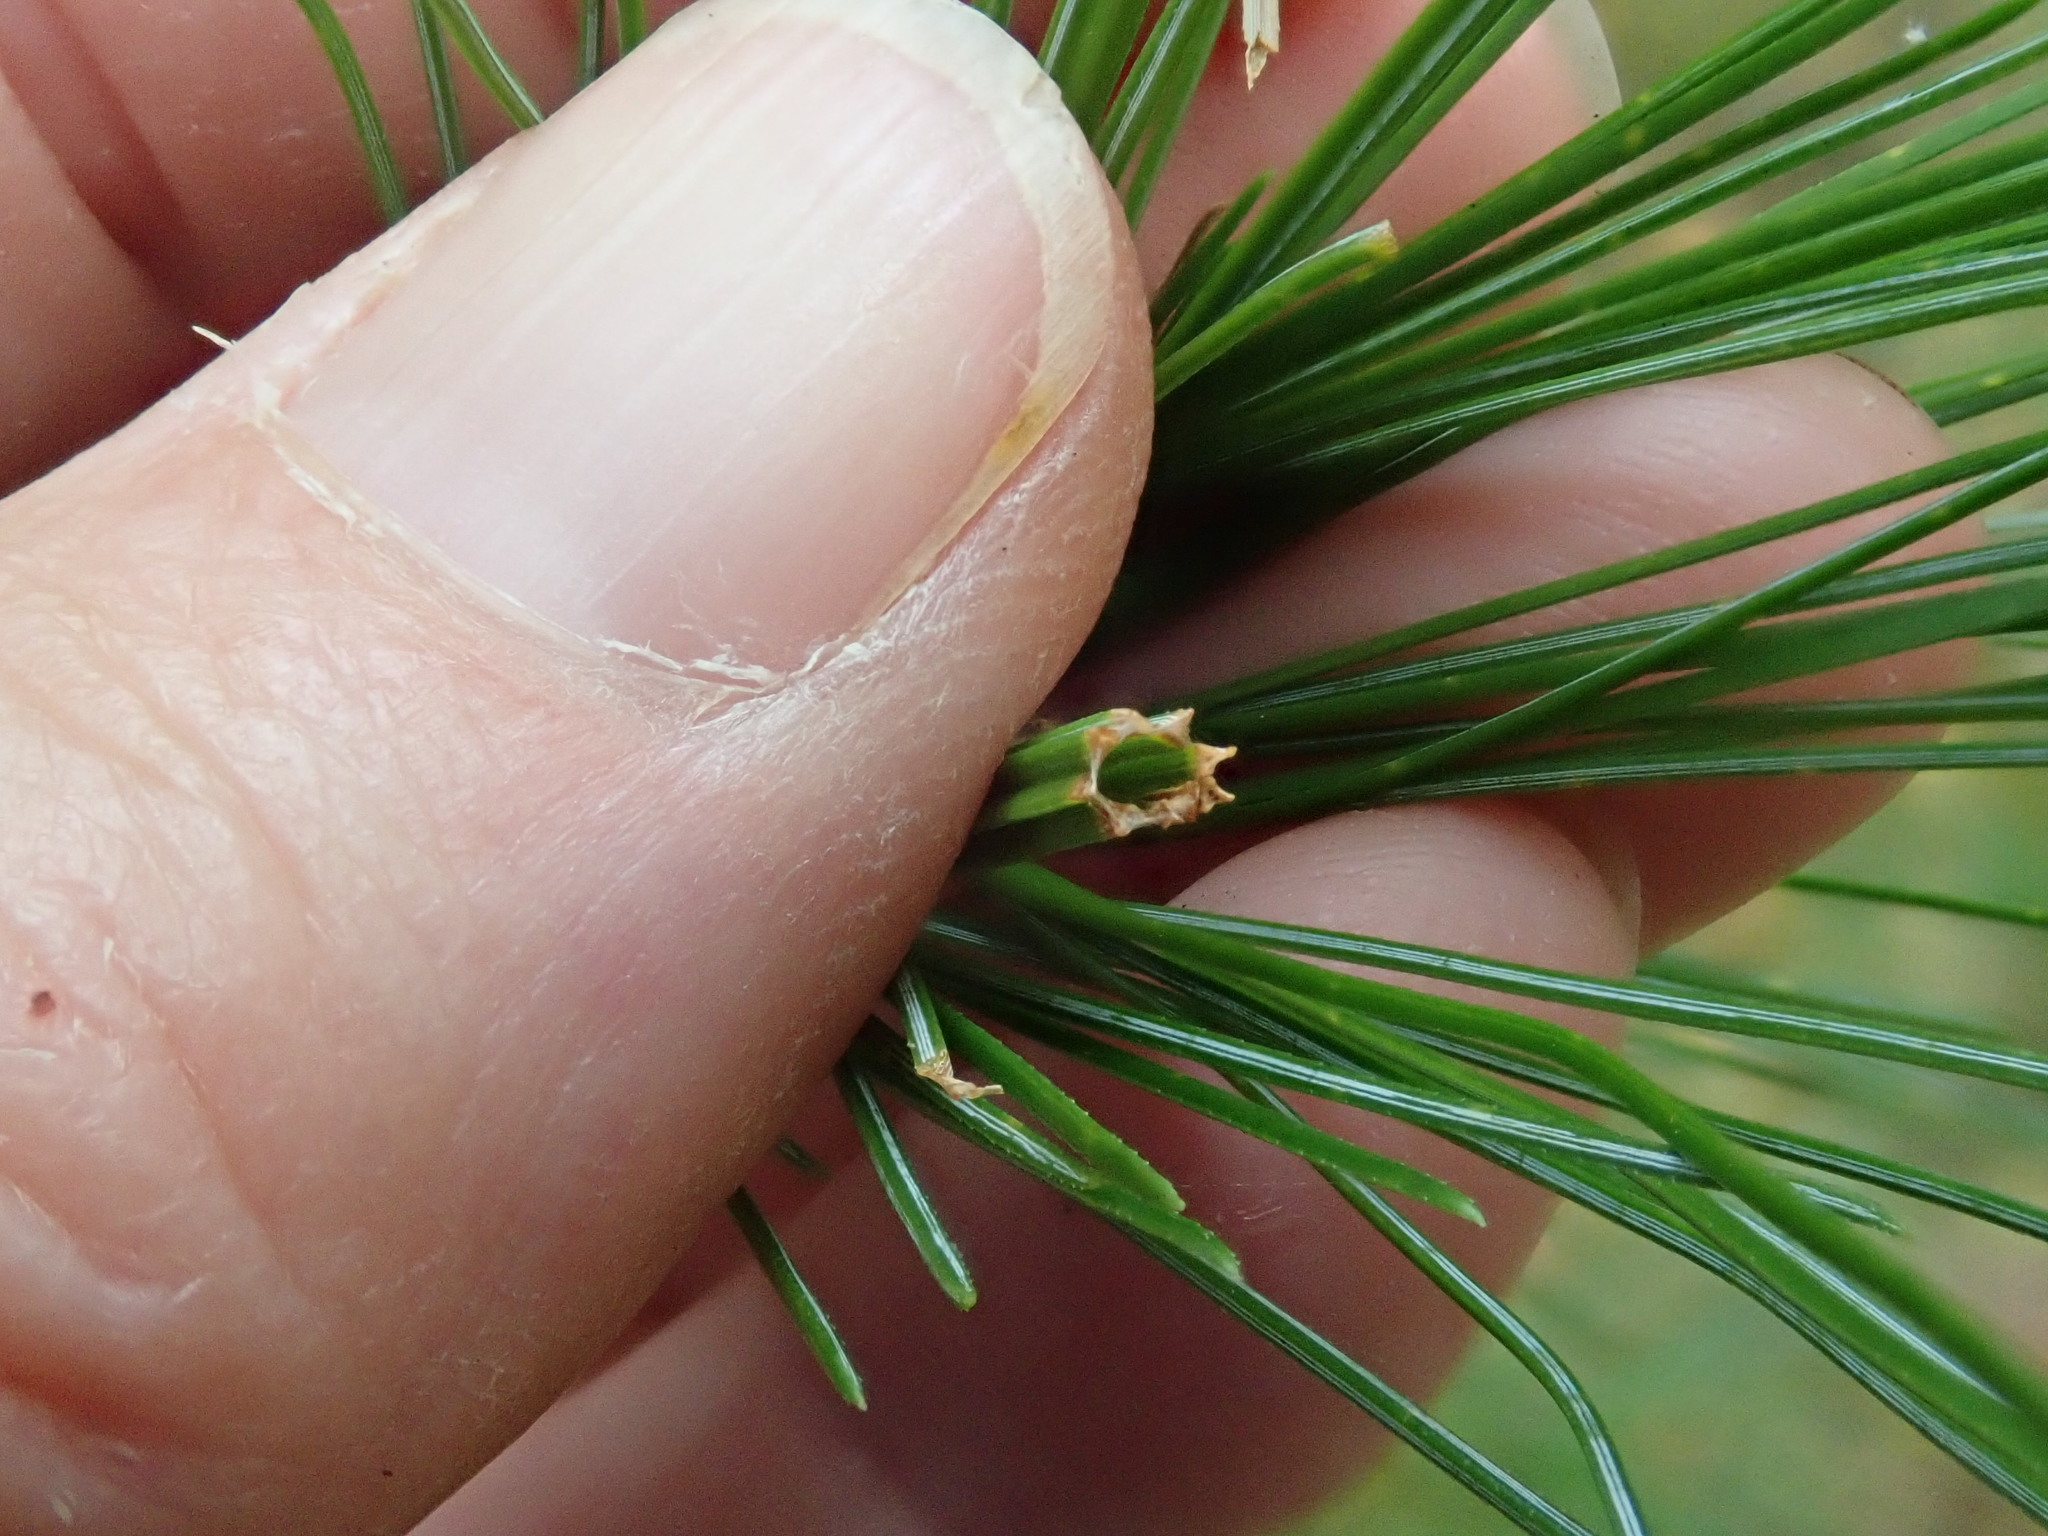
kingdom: Animalia
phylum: Arthropoda
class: Insecta
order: Lepidoptera
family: Tortricidae
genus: Argyrotaenia
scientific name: Argyrotaenia pinatubana
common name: Pine tube moth
